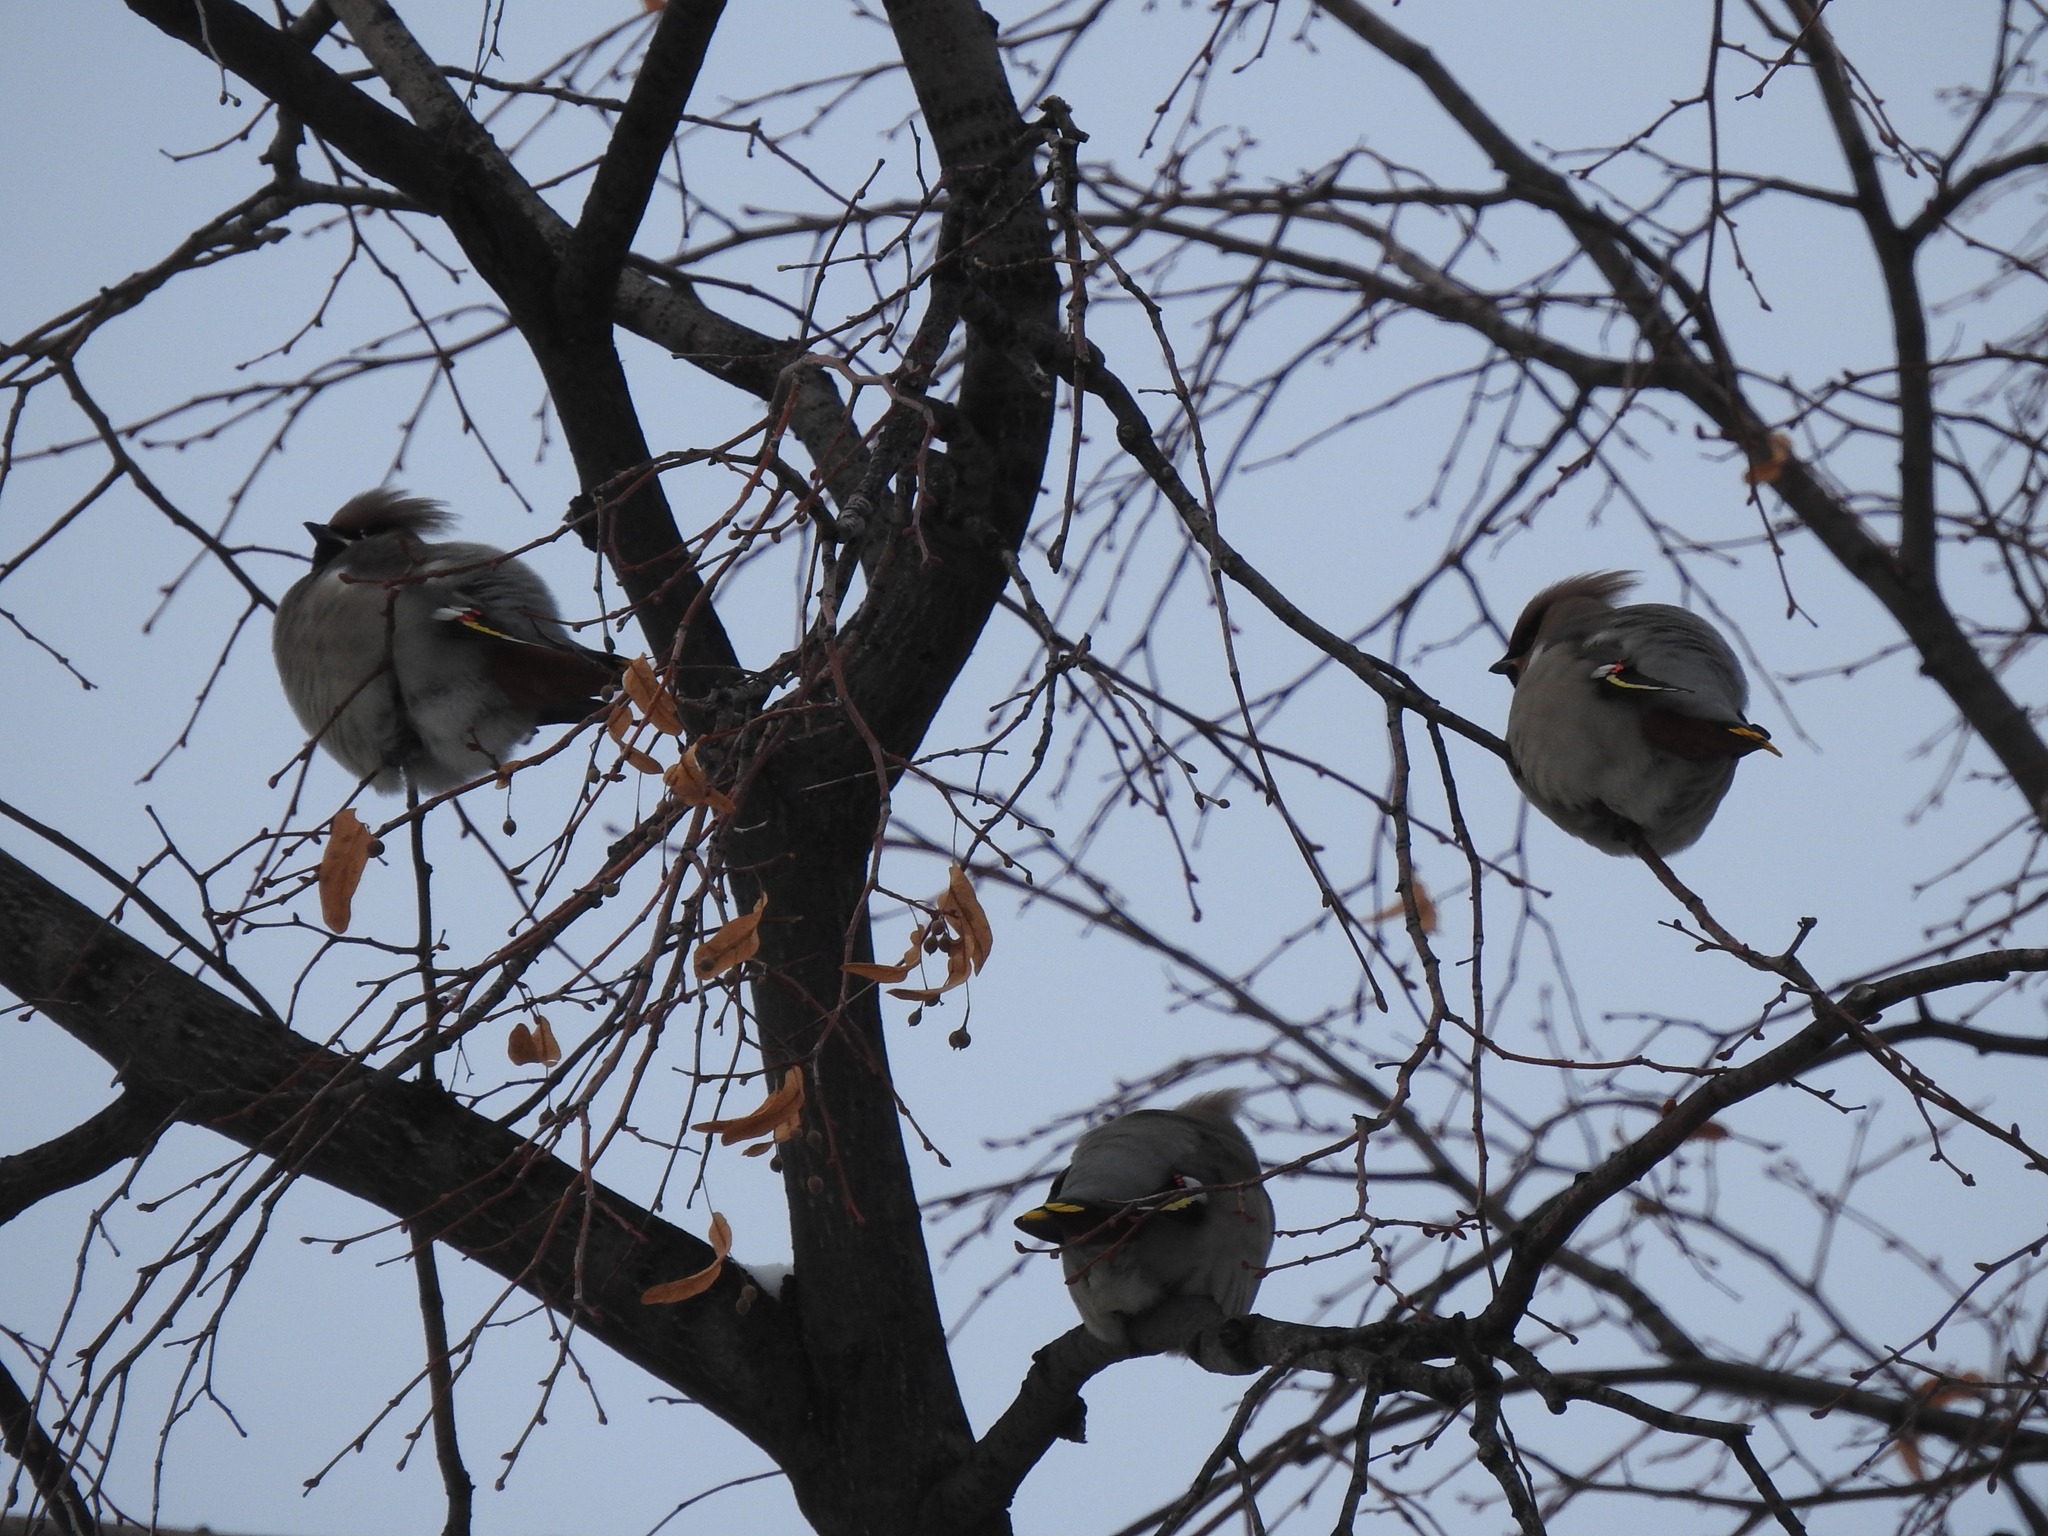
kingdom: Animalia
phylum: Chordata
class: Aves
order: Passeriformes
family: Bombycillidae
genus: Bombycilla
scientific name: Bombycilla garrulus
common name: Bohemian waxwing
